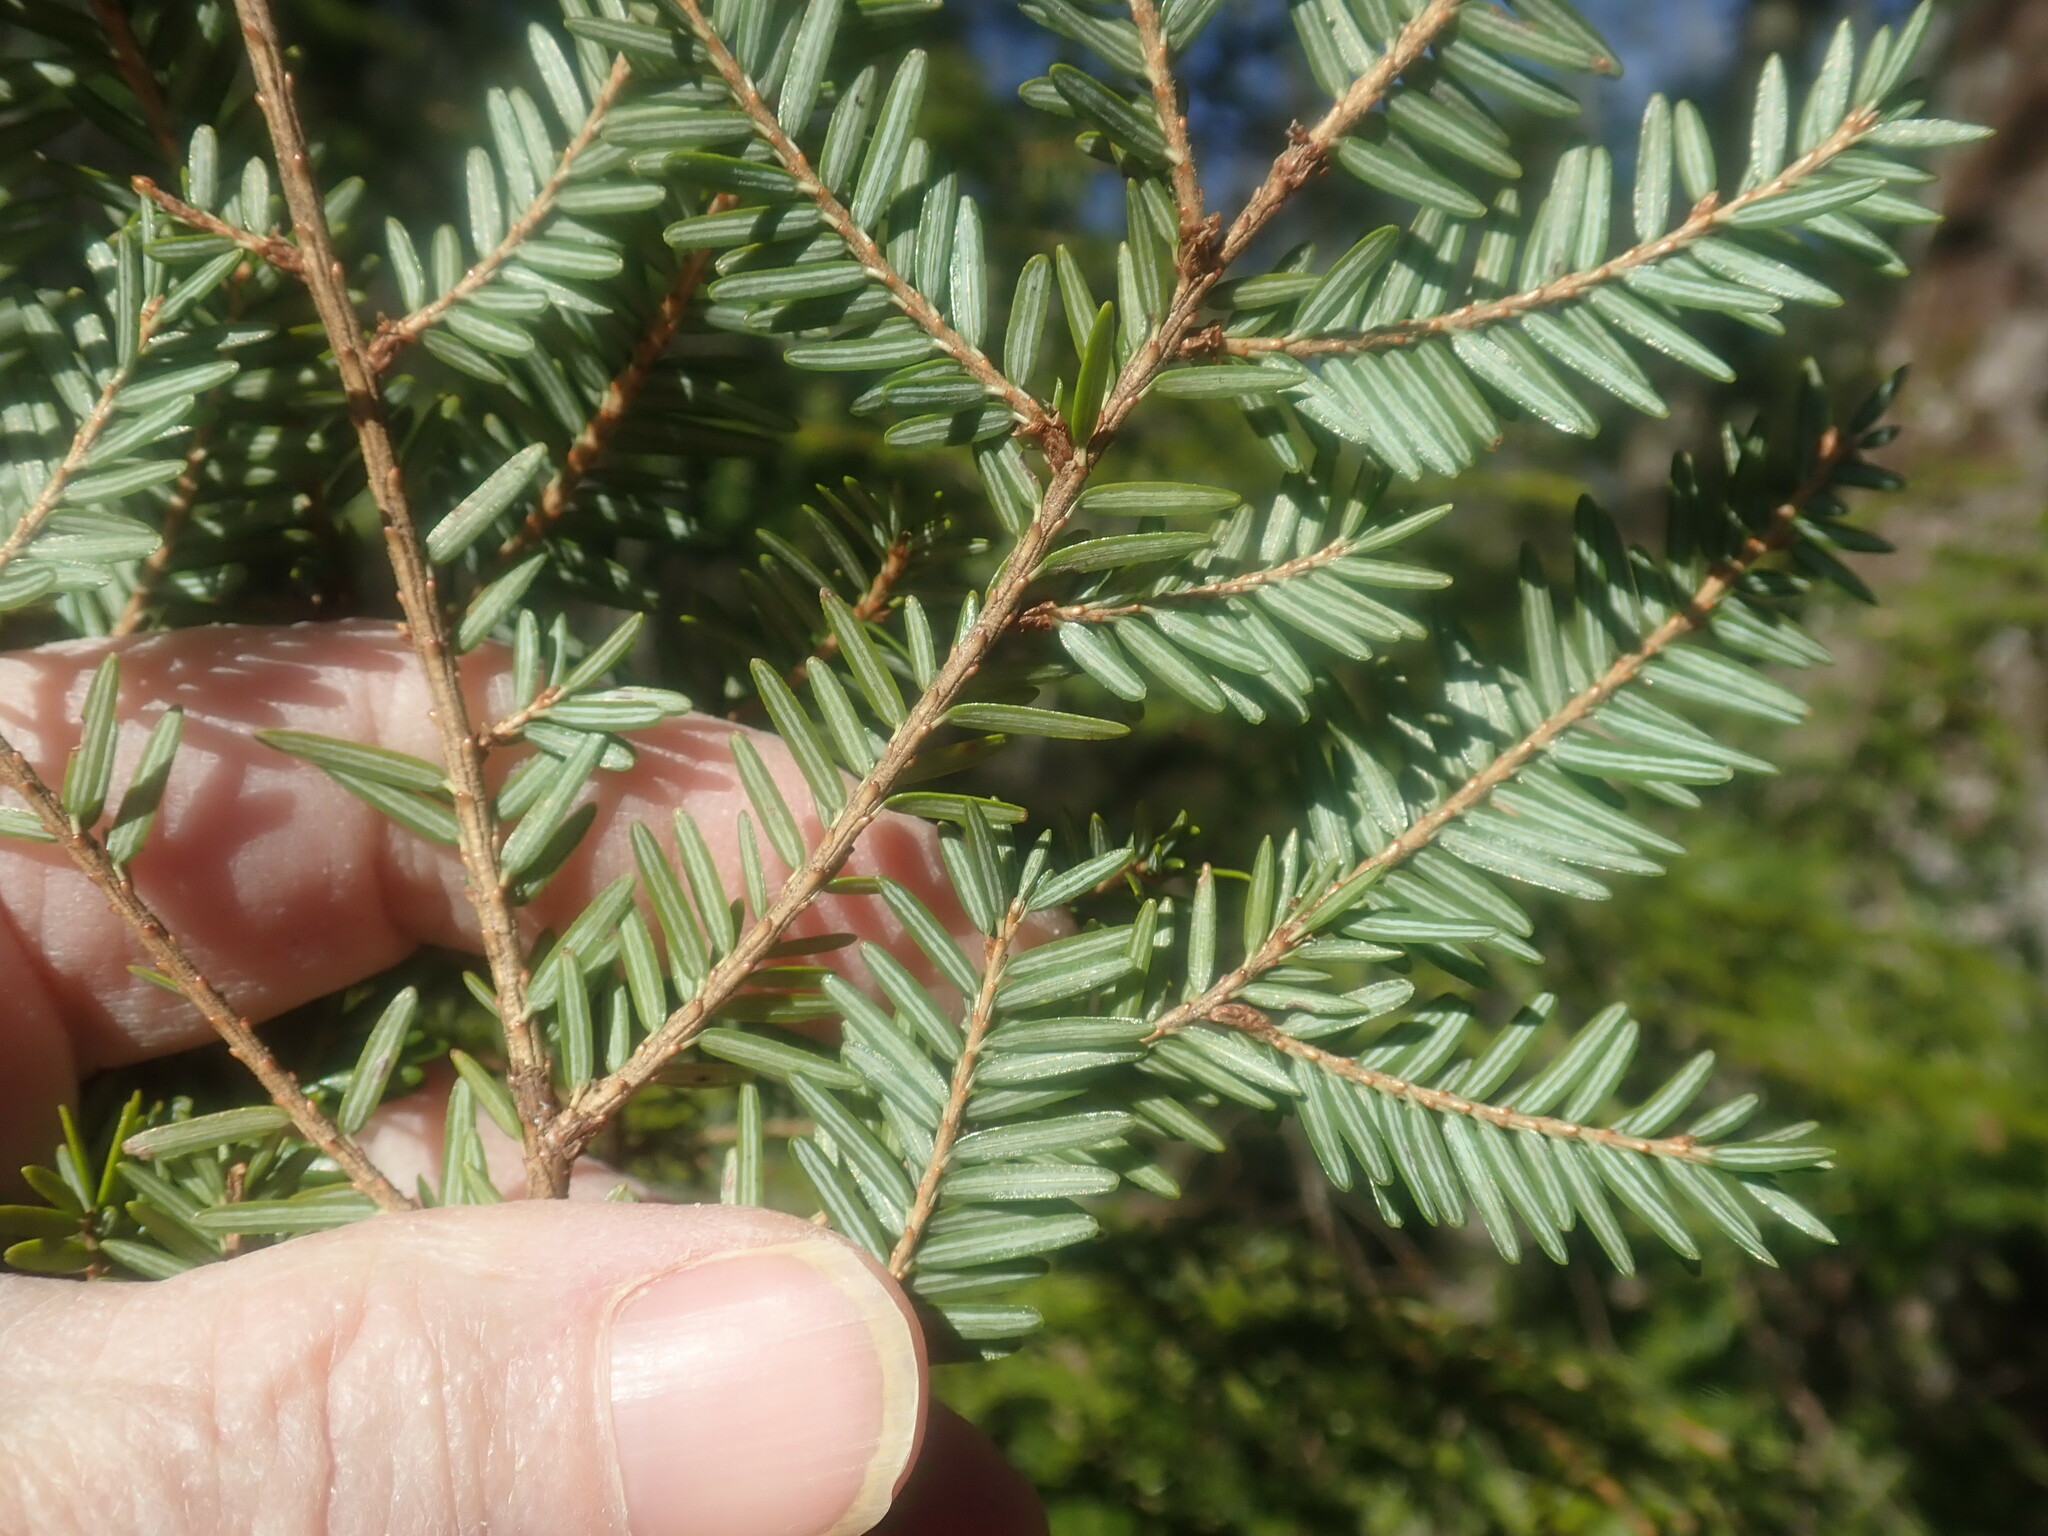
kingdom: Plantae
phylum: Tracheophyta
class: Pinopsida
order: Pinales
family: Pinaceae
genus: Tsuga
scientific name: Tsuga canadensis
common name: Eastern hemlock
